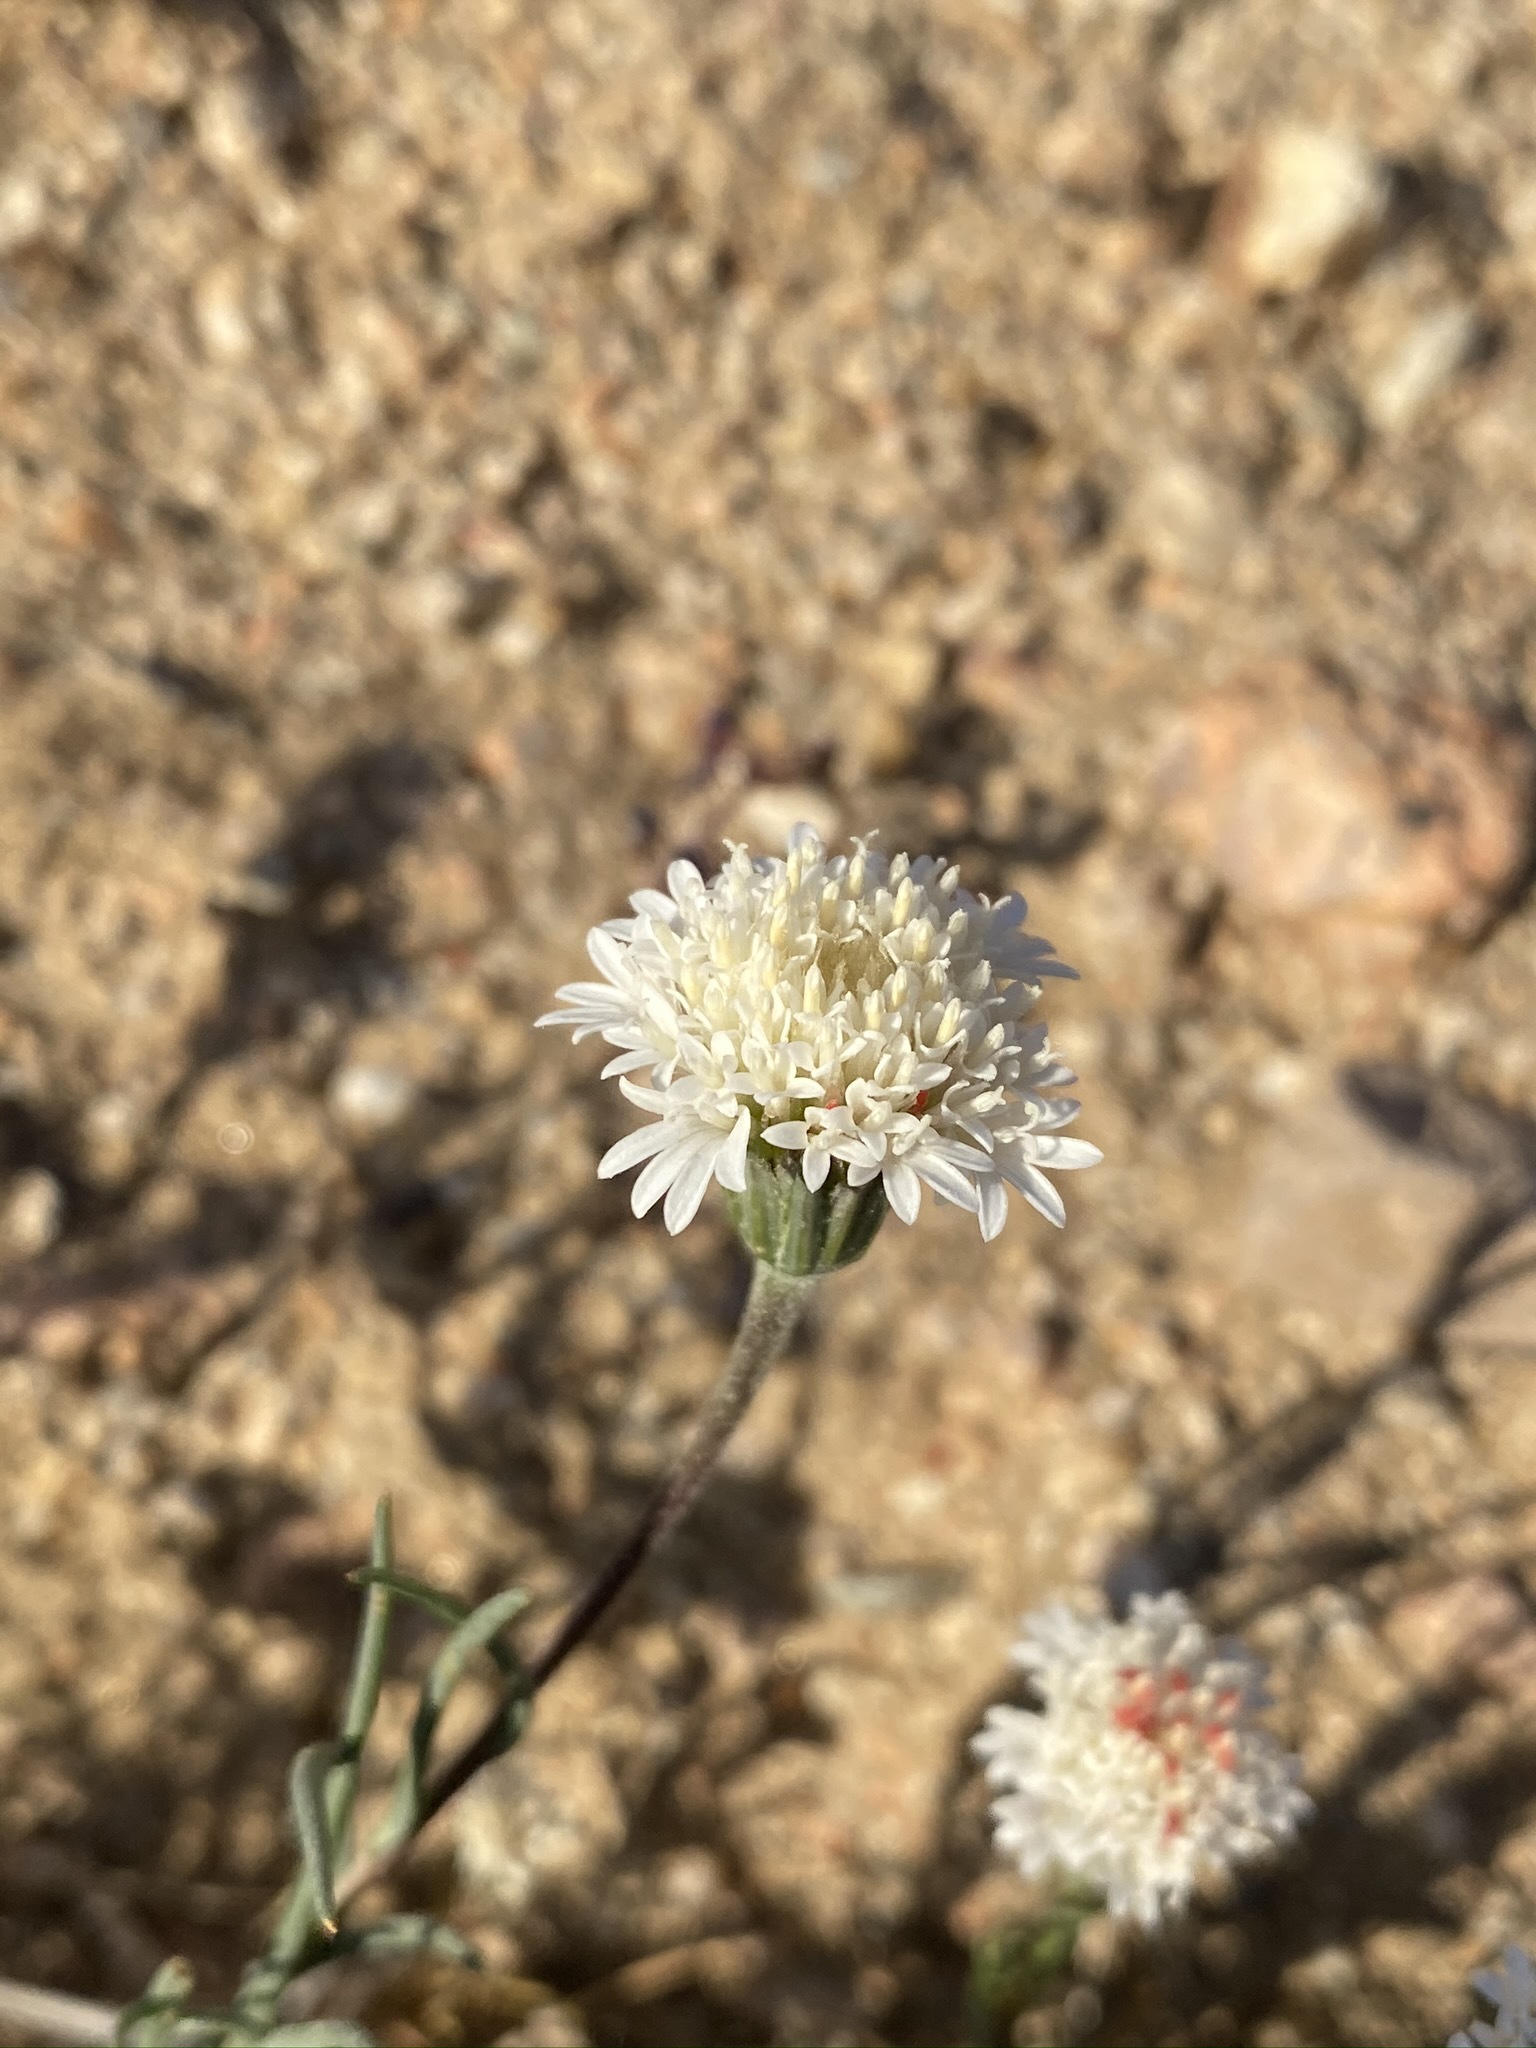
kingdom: Plantae
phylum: Tracheophyta
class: Magnoliopsida
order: Asterales
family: Asteraceae
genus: Chaenactis
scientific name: Chaenactis fremontii
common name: Fremont pincushion
